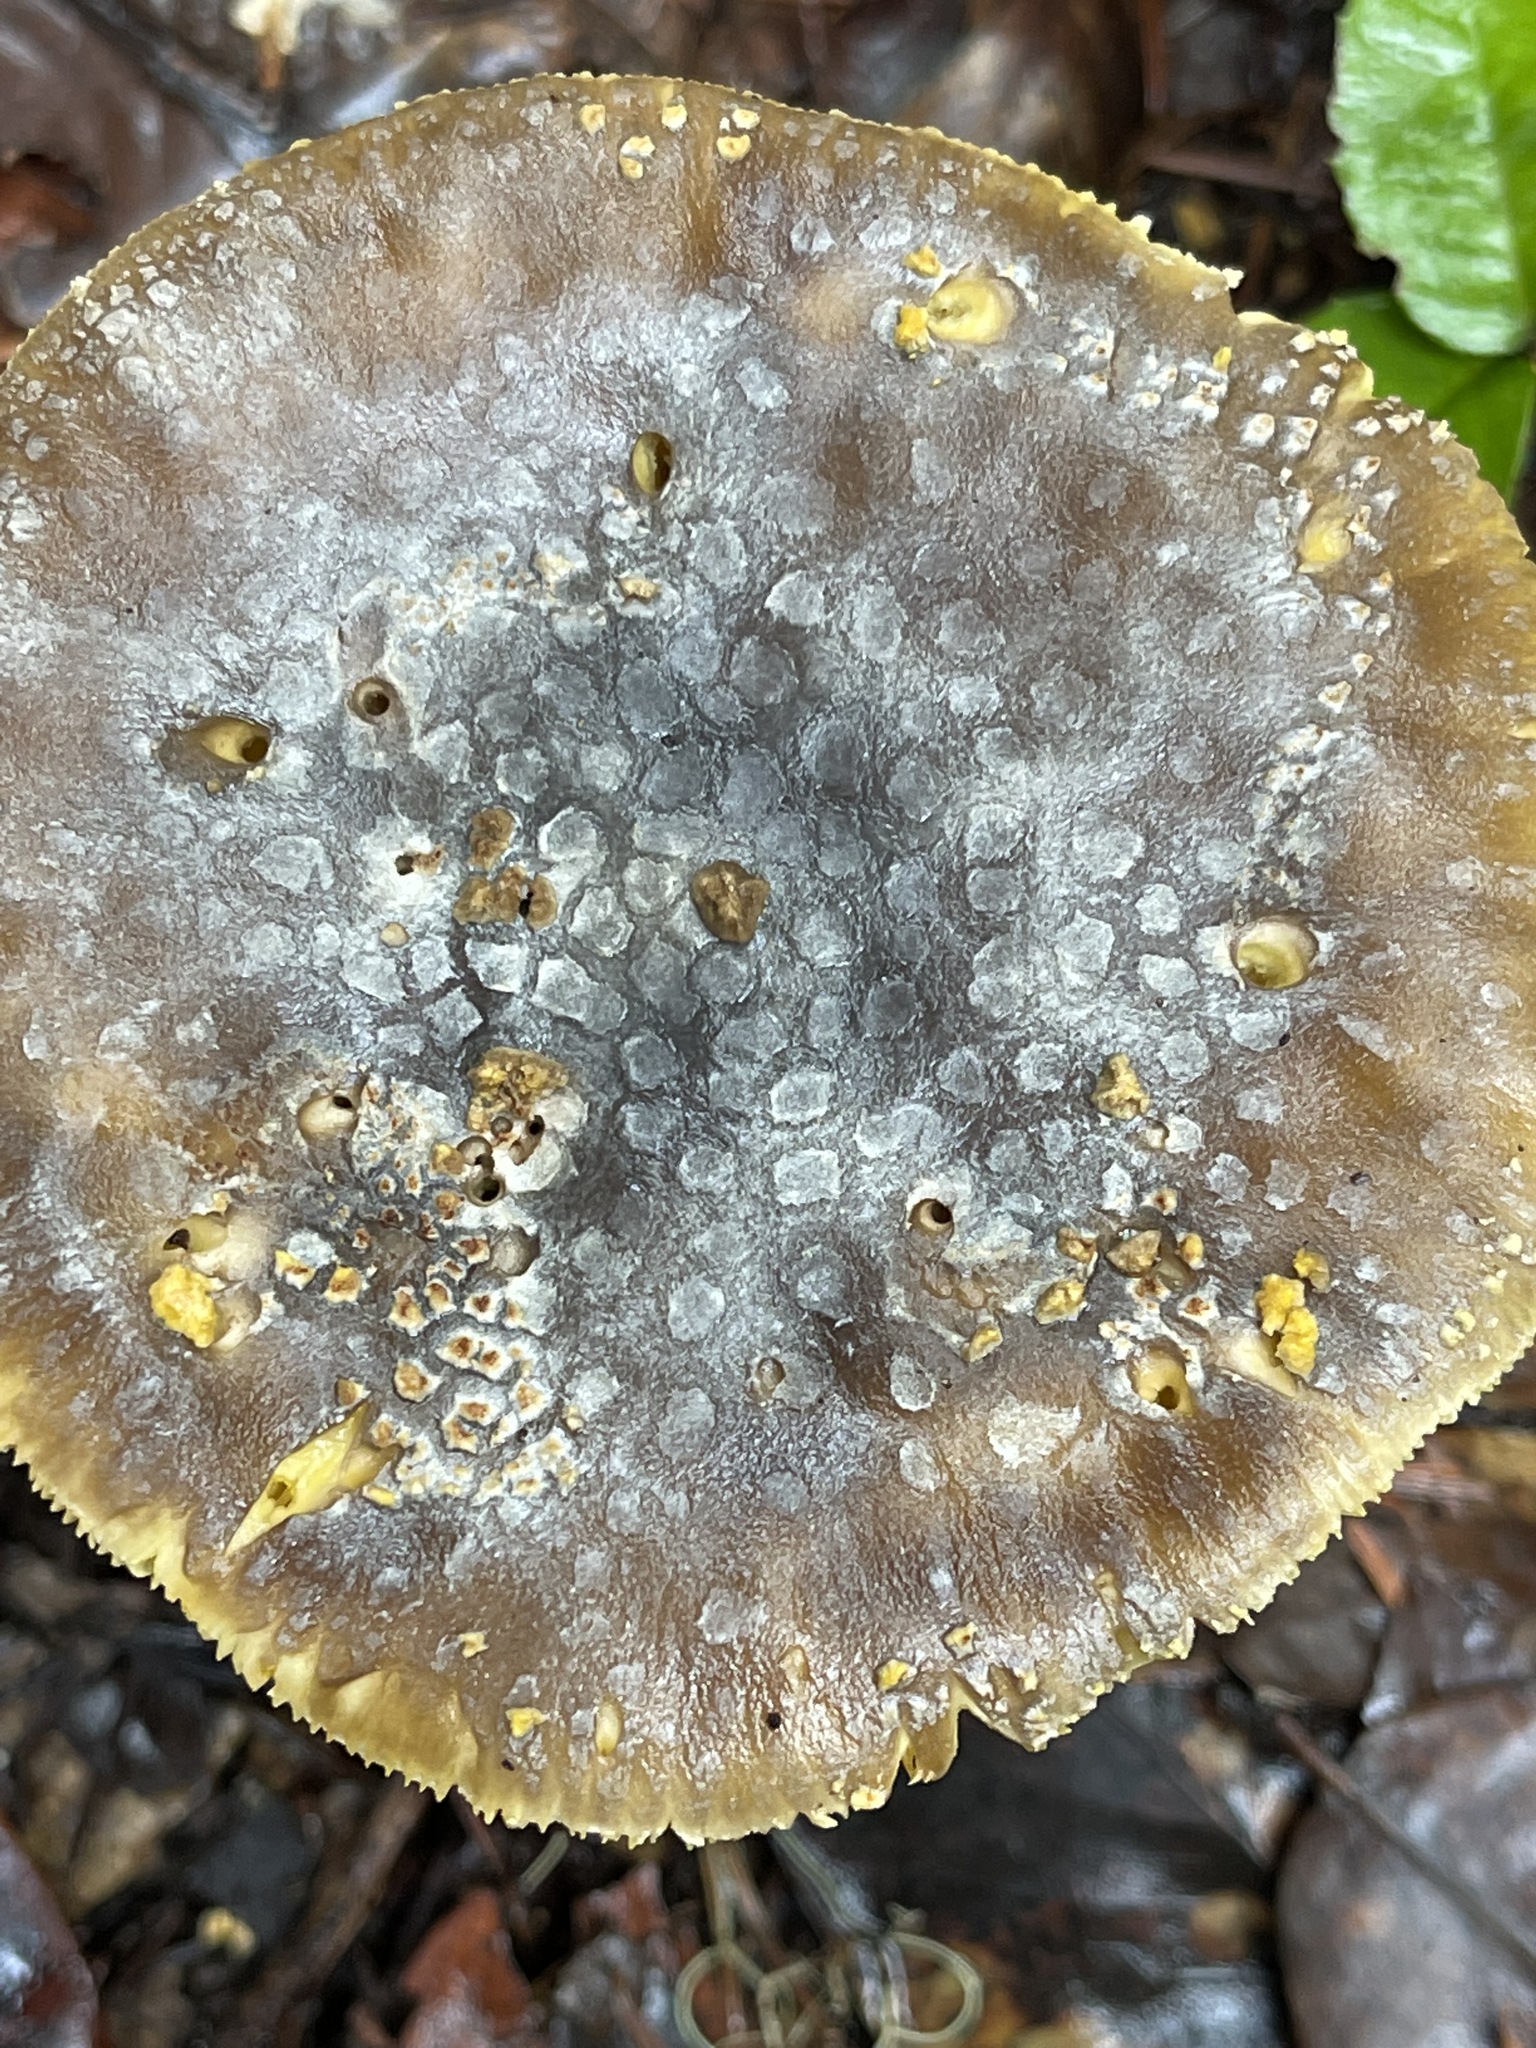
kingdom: Fungi
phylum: Basidiomycota
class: Agaricomycetes
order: Agaricales
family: Amanitaceae
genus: Amanita
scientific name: Amanita augusta
